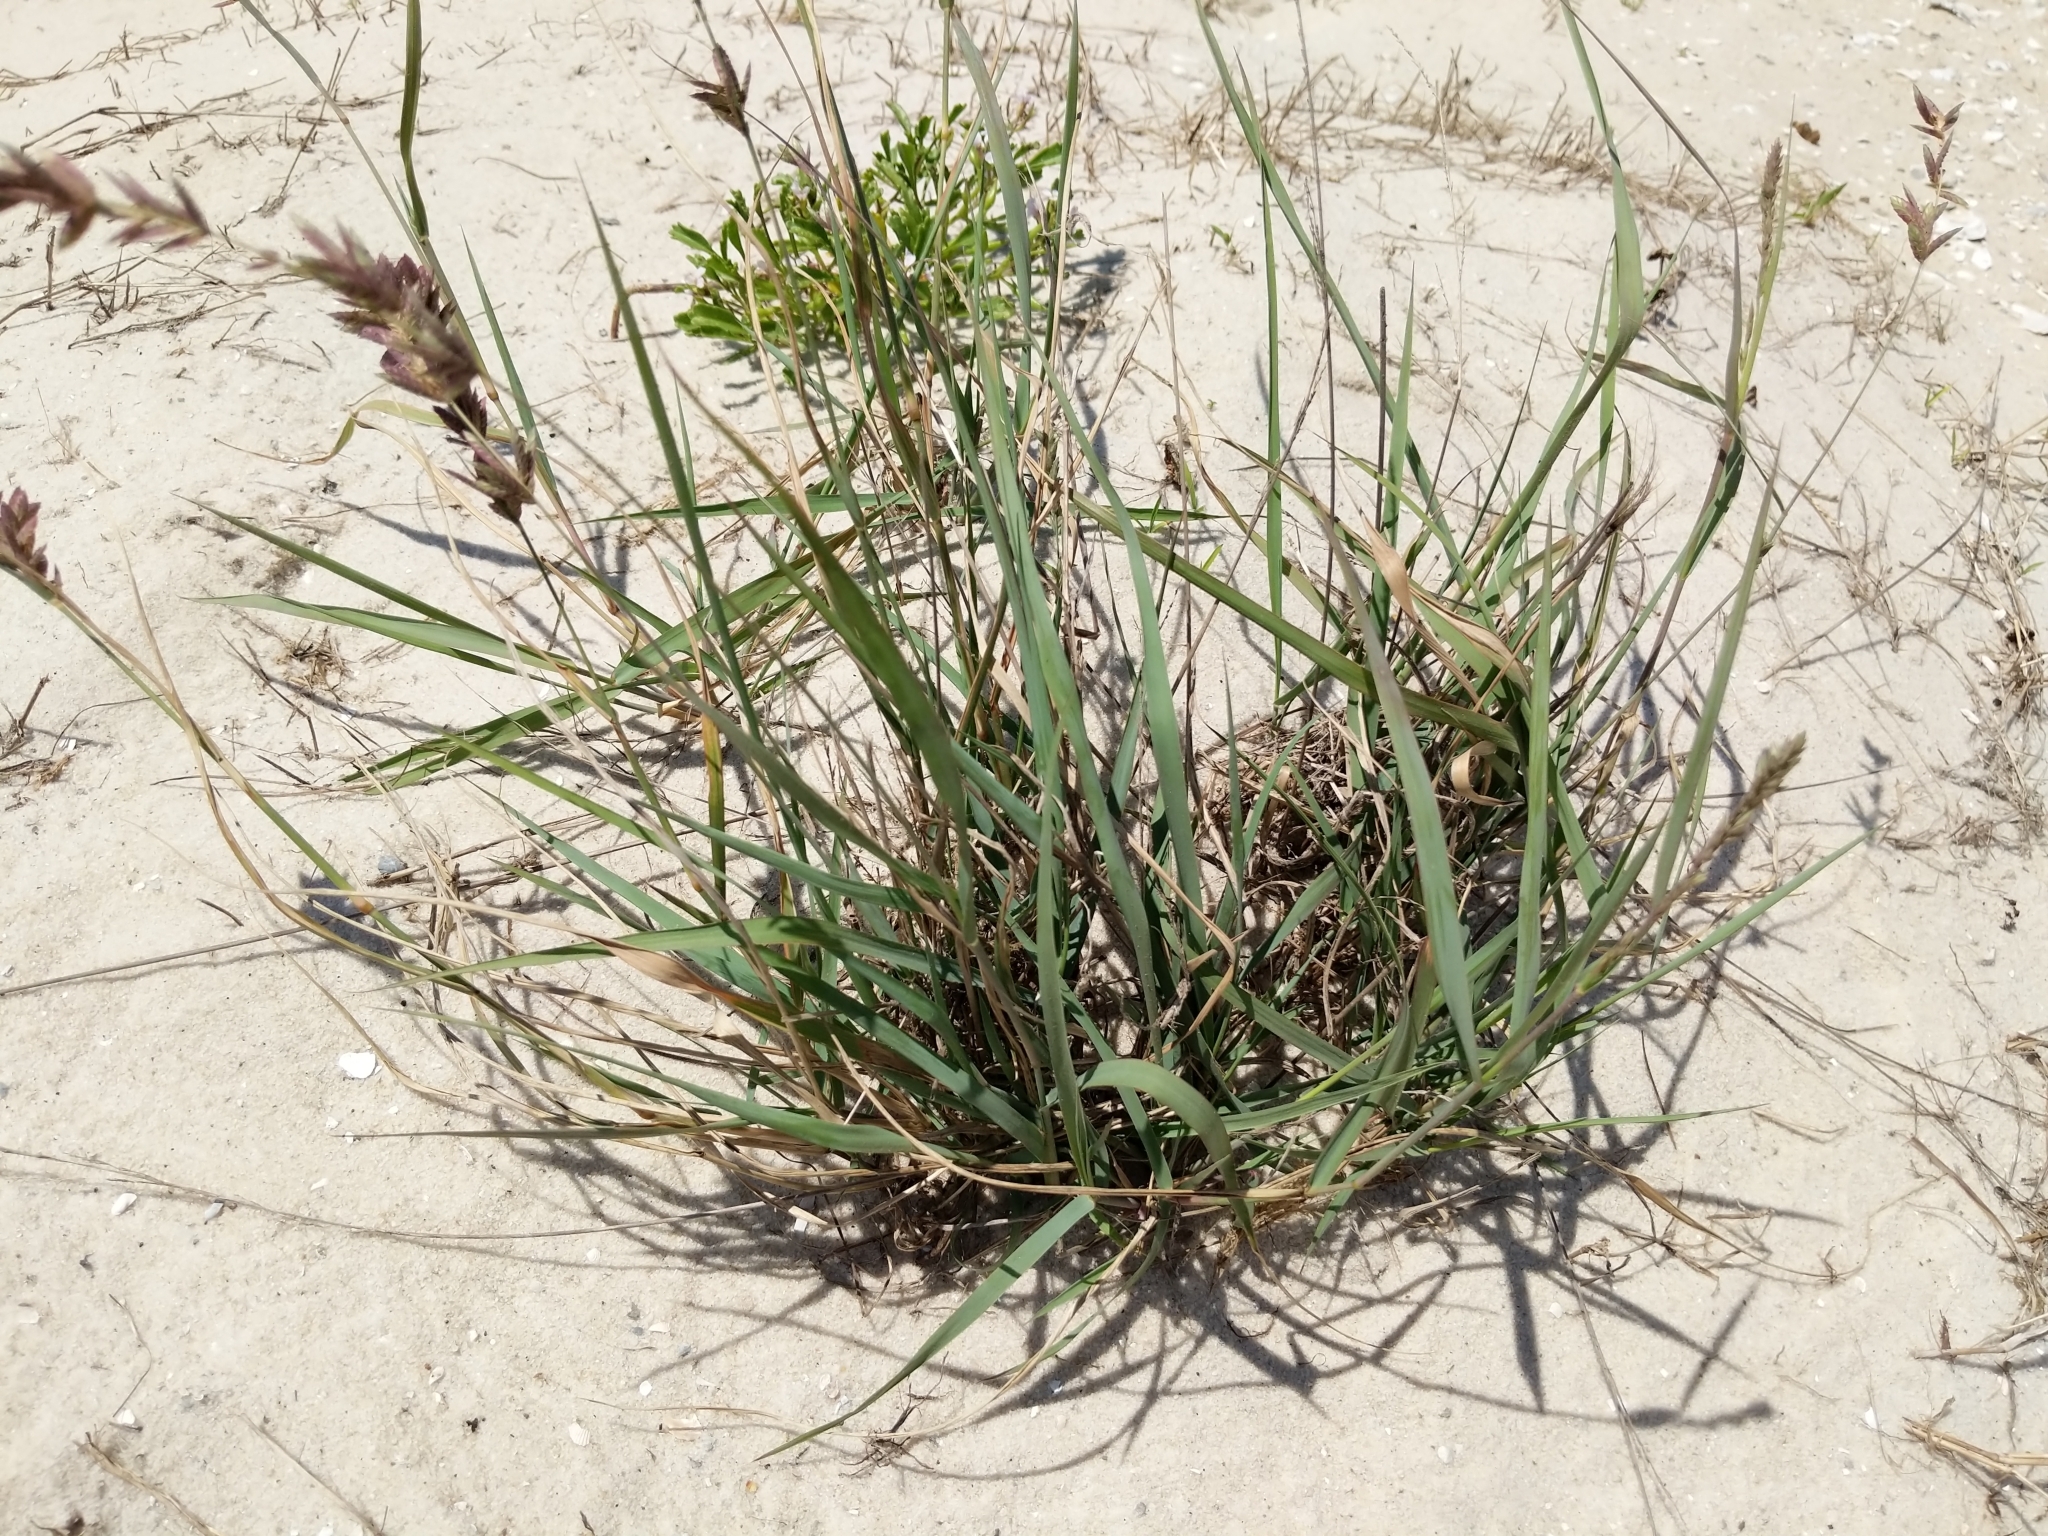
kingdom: Plantae
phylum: Tracheophyta
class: Liliopsida
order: Poales
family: Poaceae
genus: Eragrostis
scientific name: Eragrostis secundiflora
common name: Red love grass
